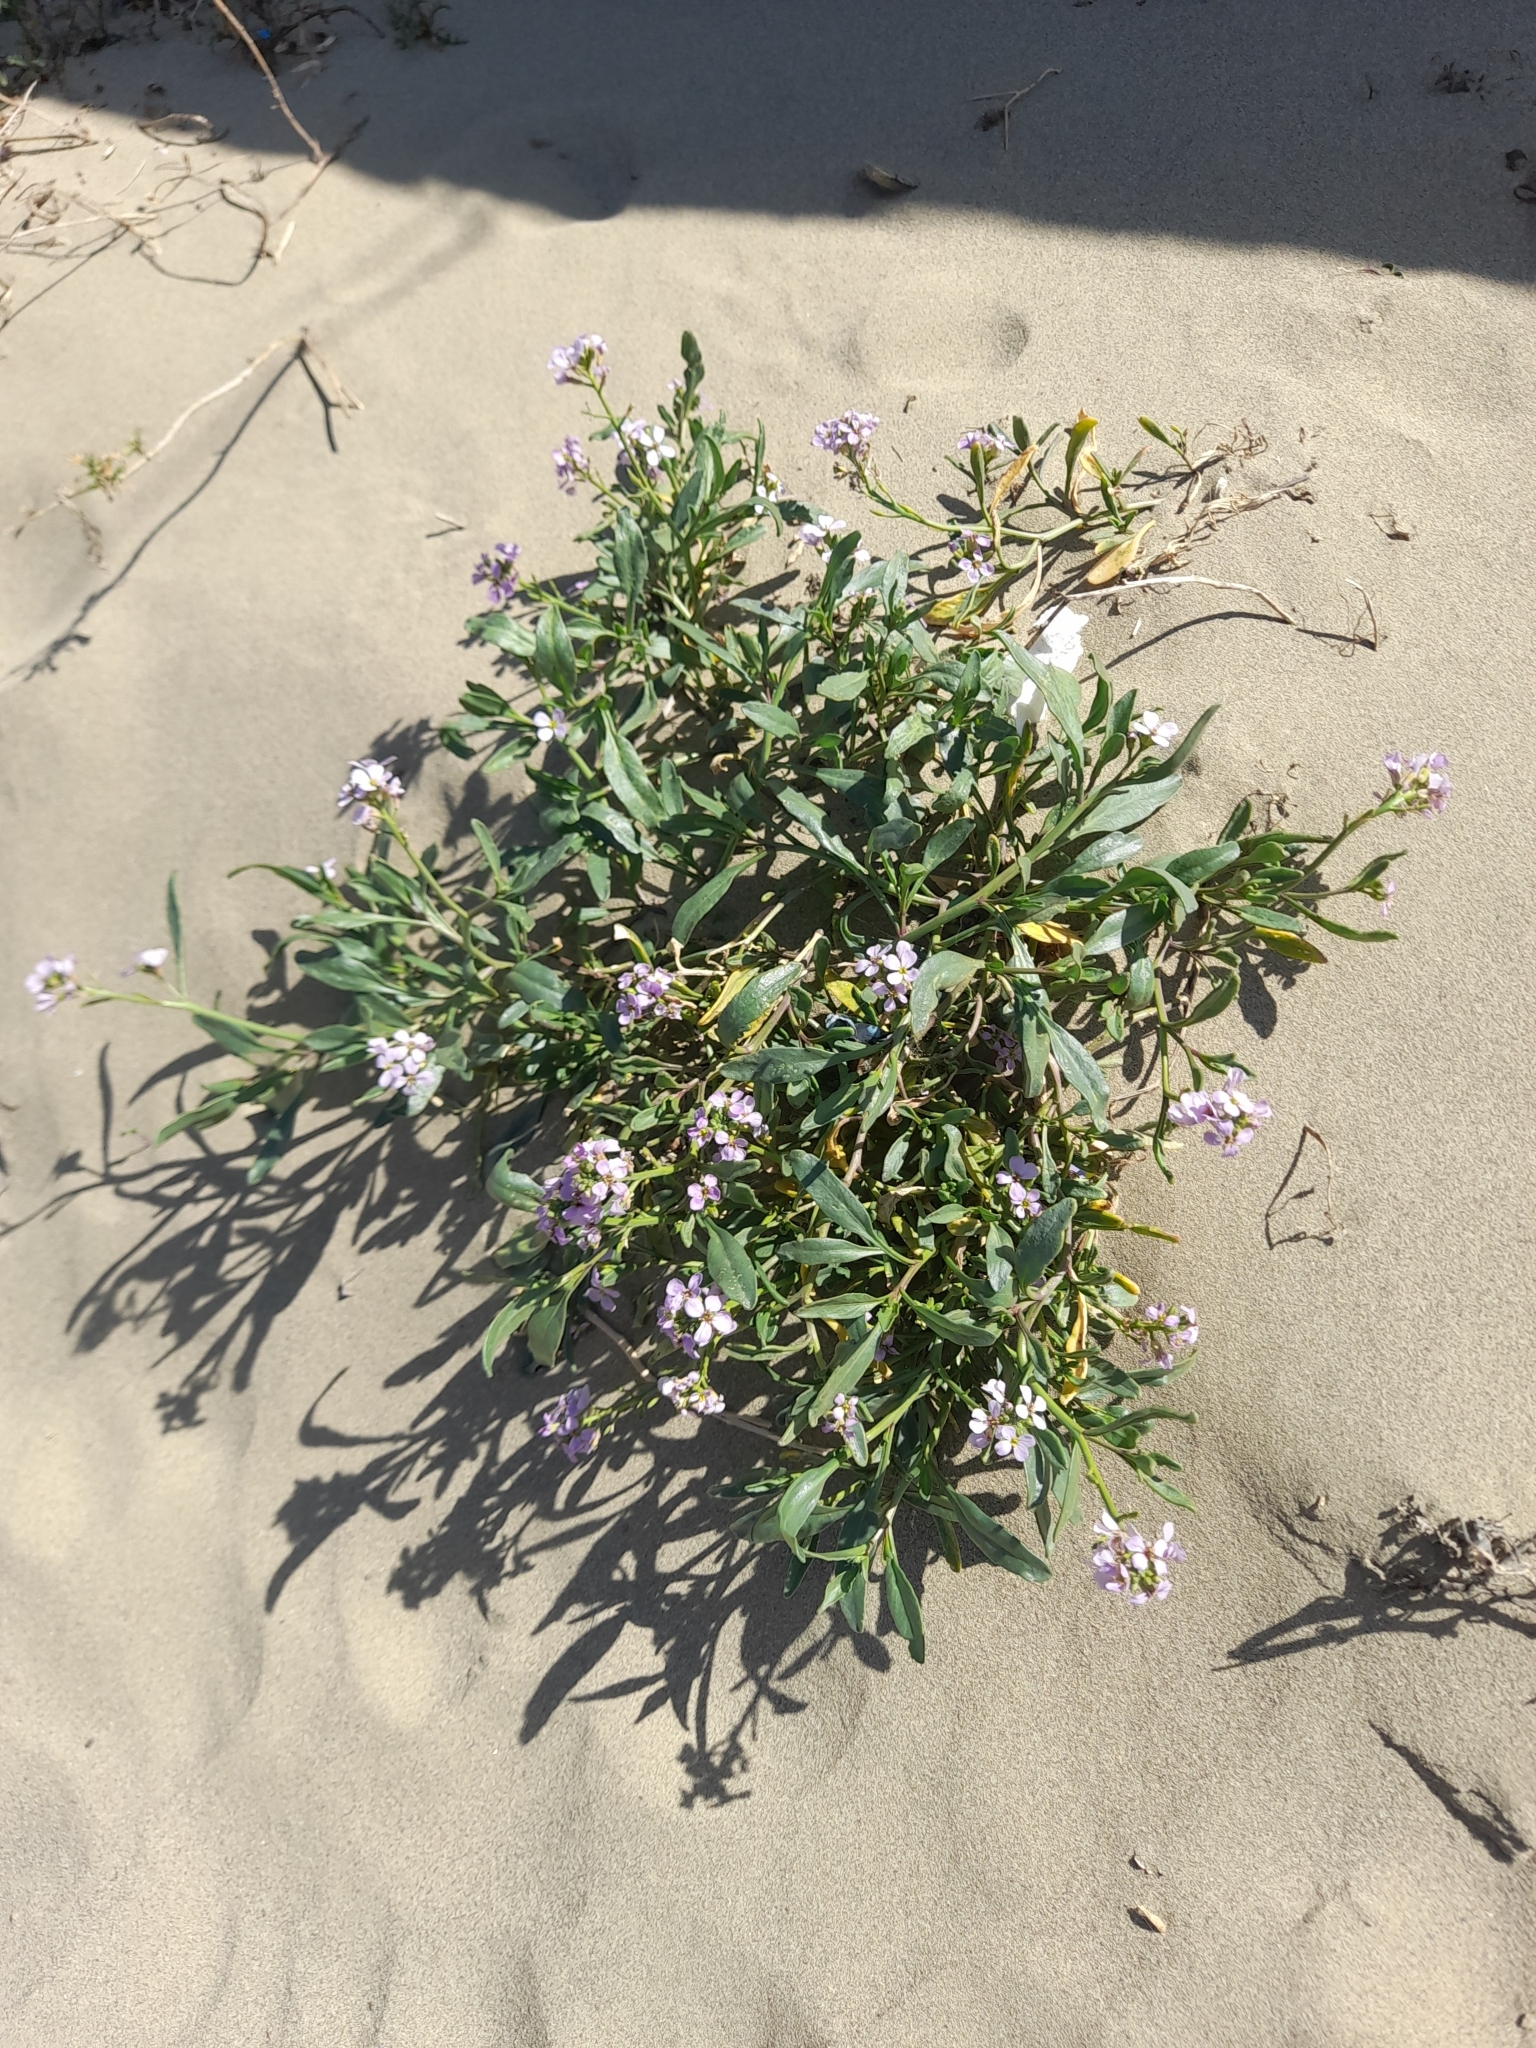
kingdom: Plantae
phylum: Tracheophyta
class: Magnoliopsida
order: Brassicales
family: Brassicaceae
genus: Cakile
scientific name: Cakile maritima
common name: Sea rocket
